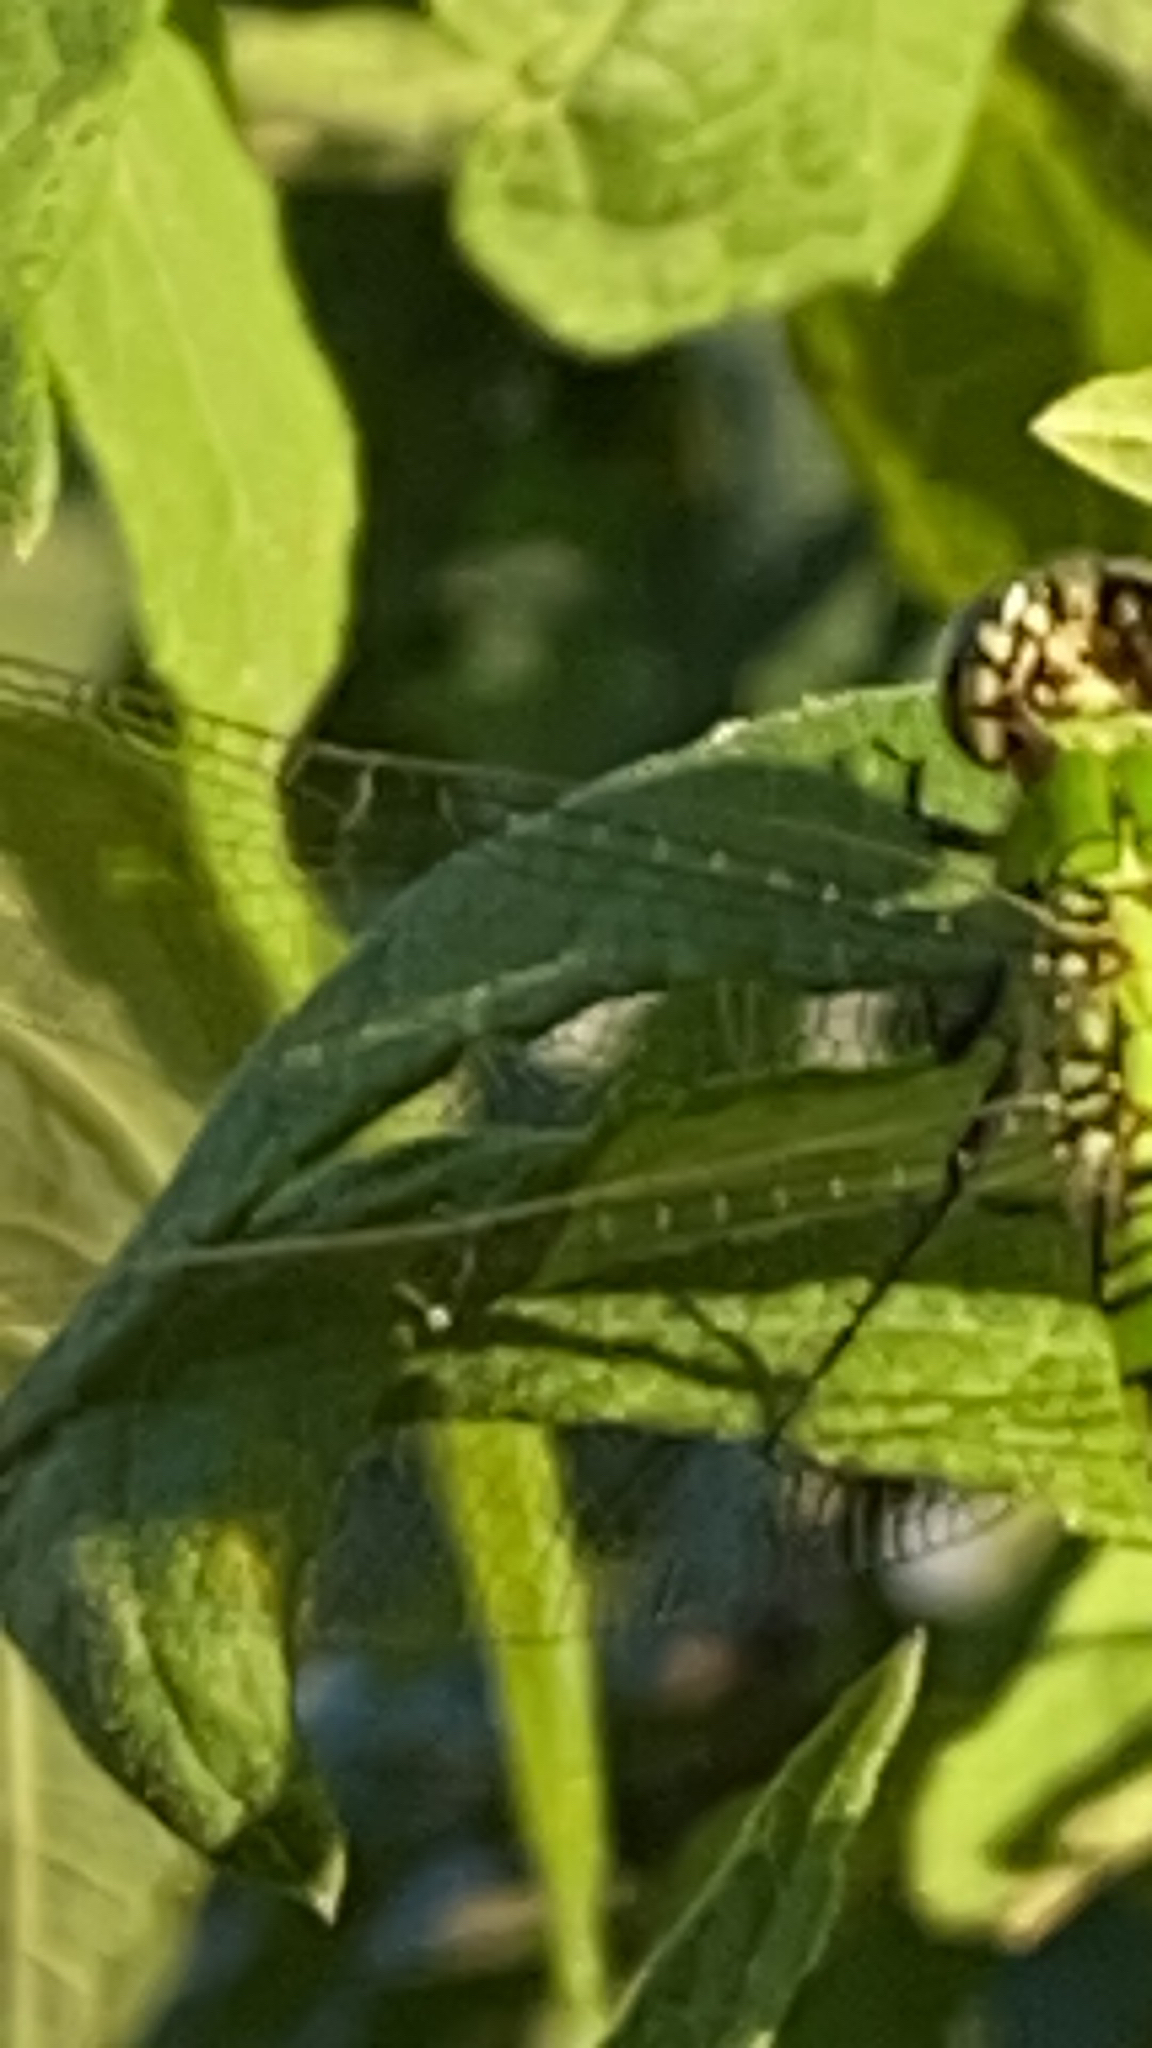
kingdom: Animalia
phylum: Arthropoda
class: Insecta
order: Odonata
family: Libellulidae
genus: Erythemis
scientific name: Erythemis simplicicollis
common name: Eastern pondhawk
